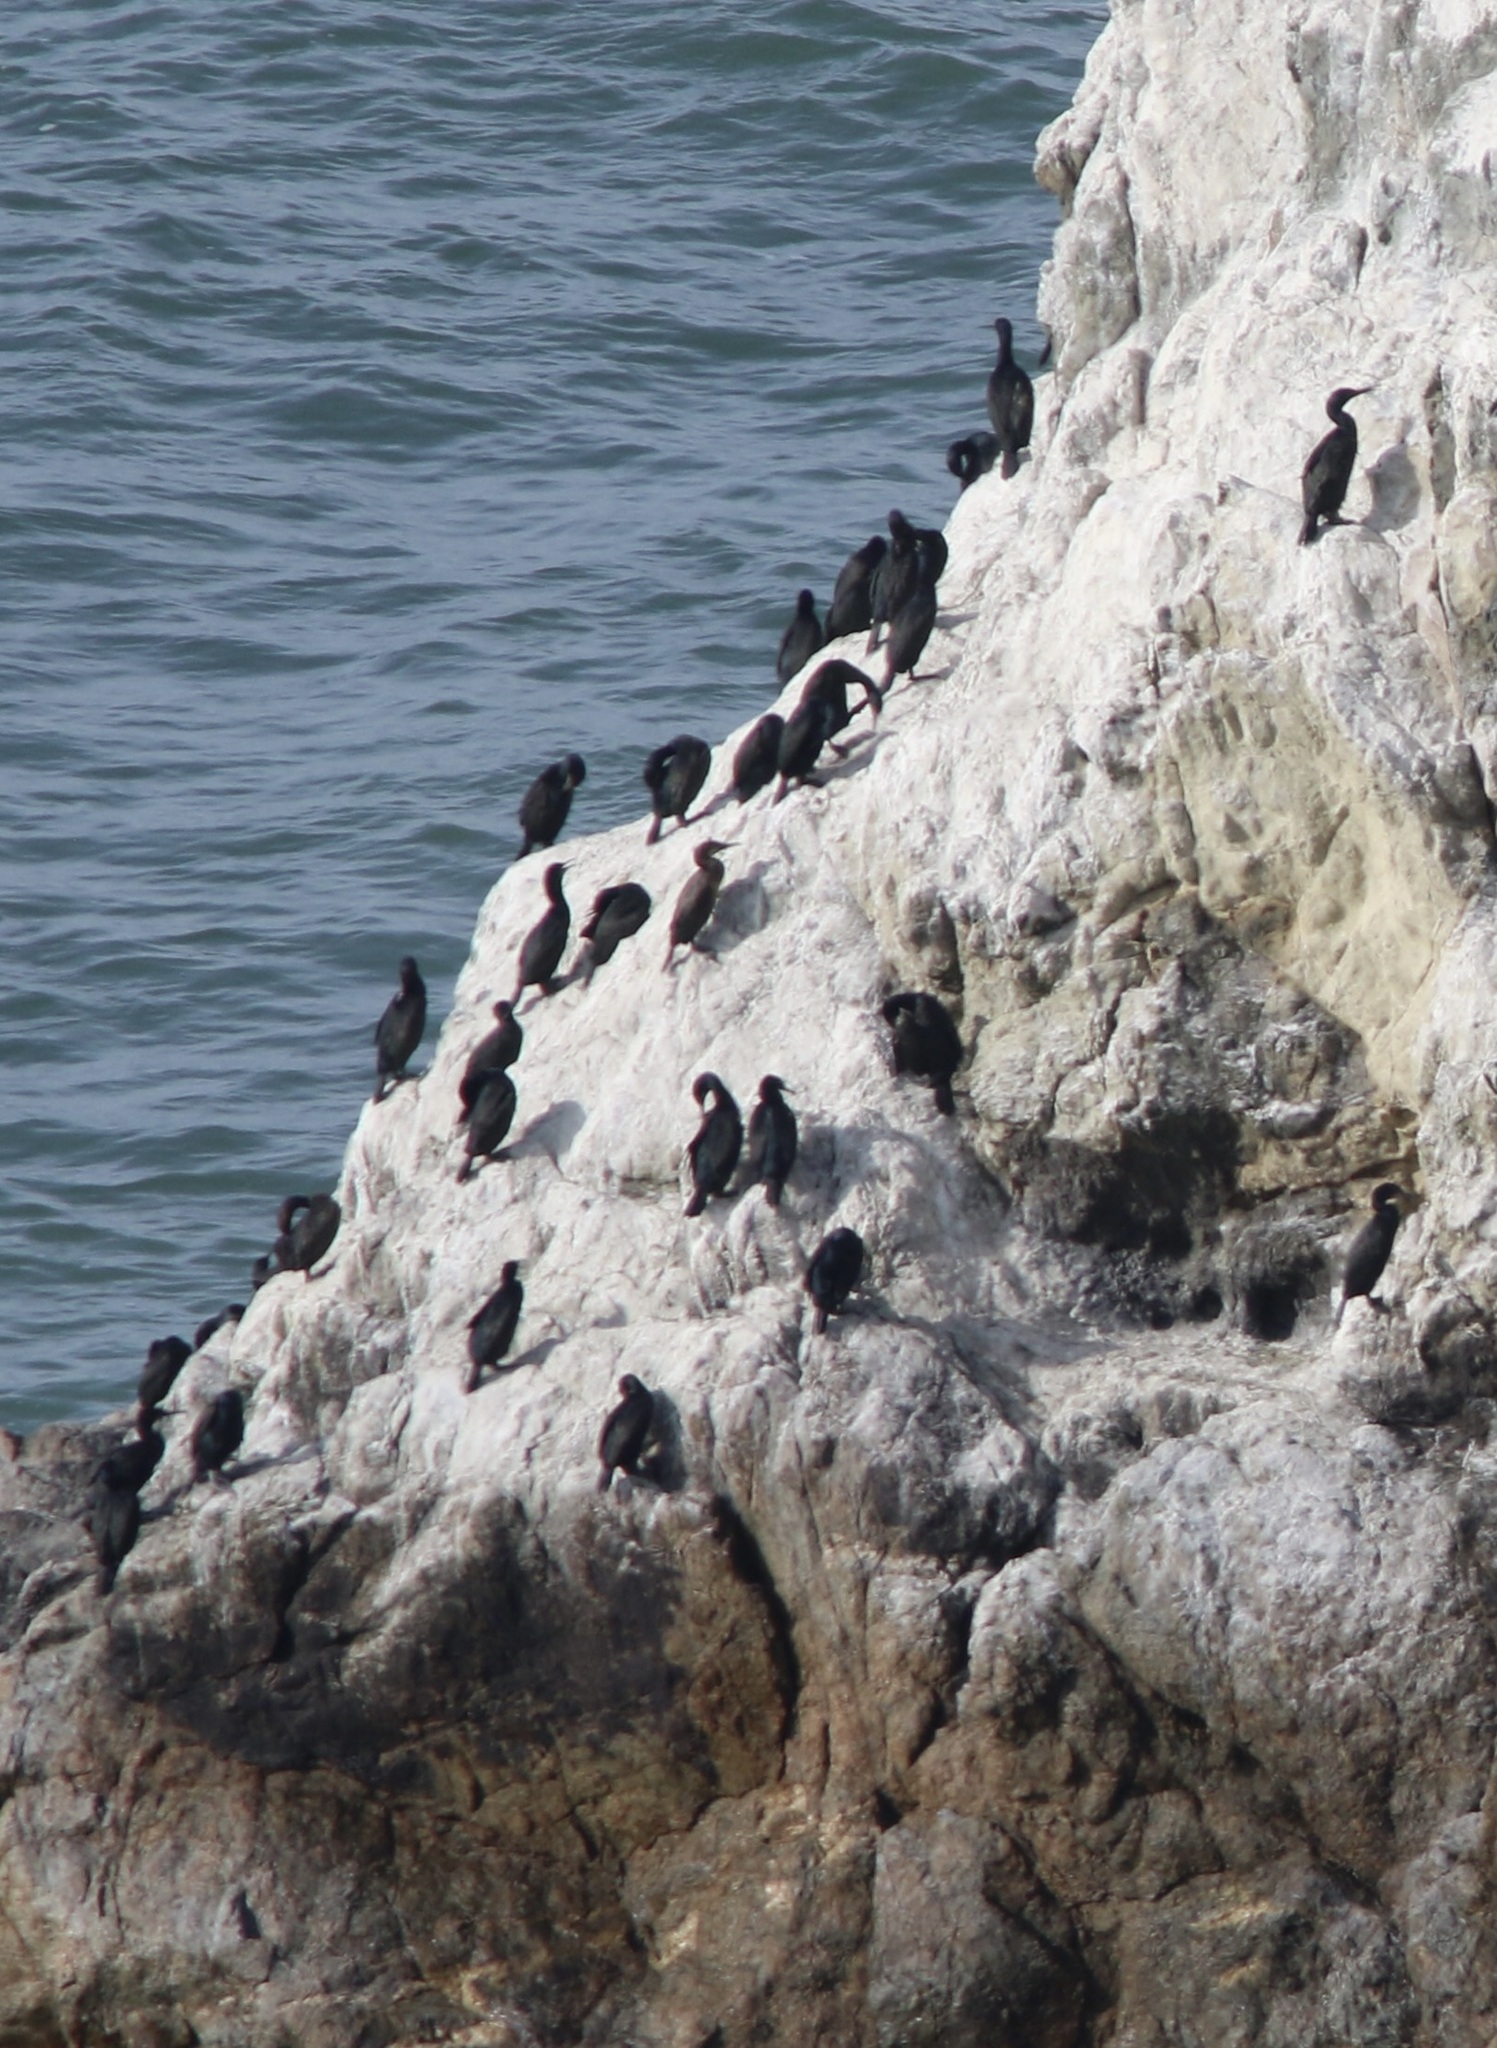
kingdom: Animalia
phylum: Chordata
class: Aves
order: Suliformes
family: Phalacrocoracidae
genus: Phalacrocorax
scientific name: Phalacrocorax pelagicus
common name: Pelagic cormorant
